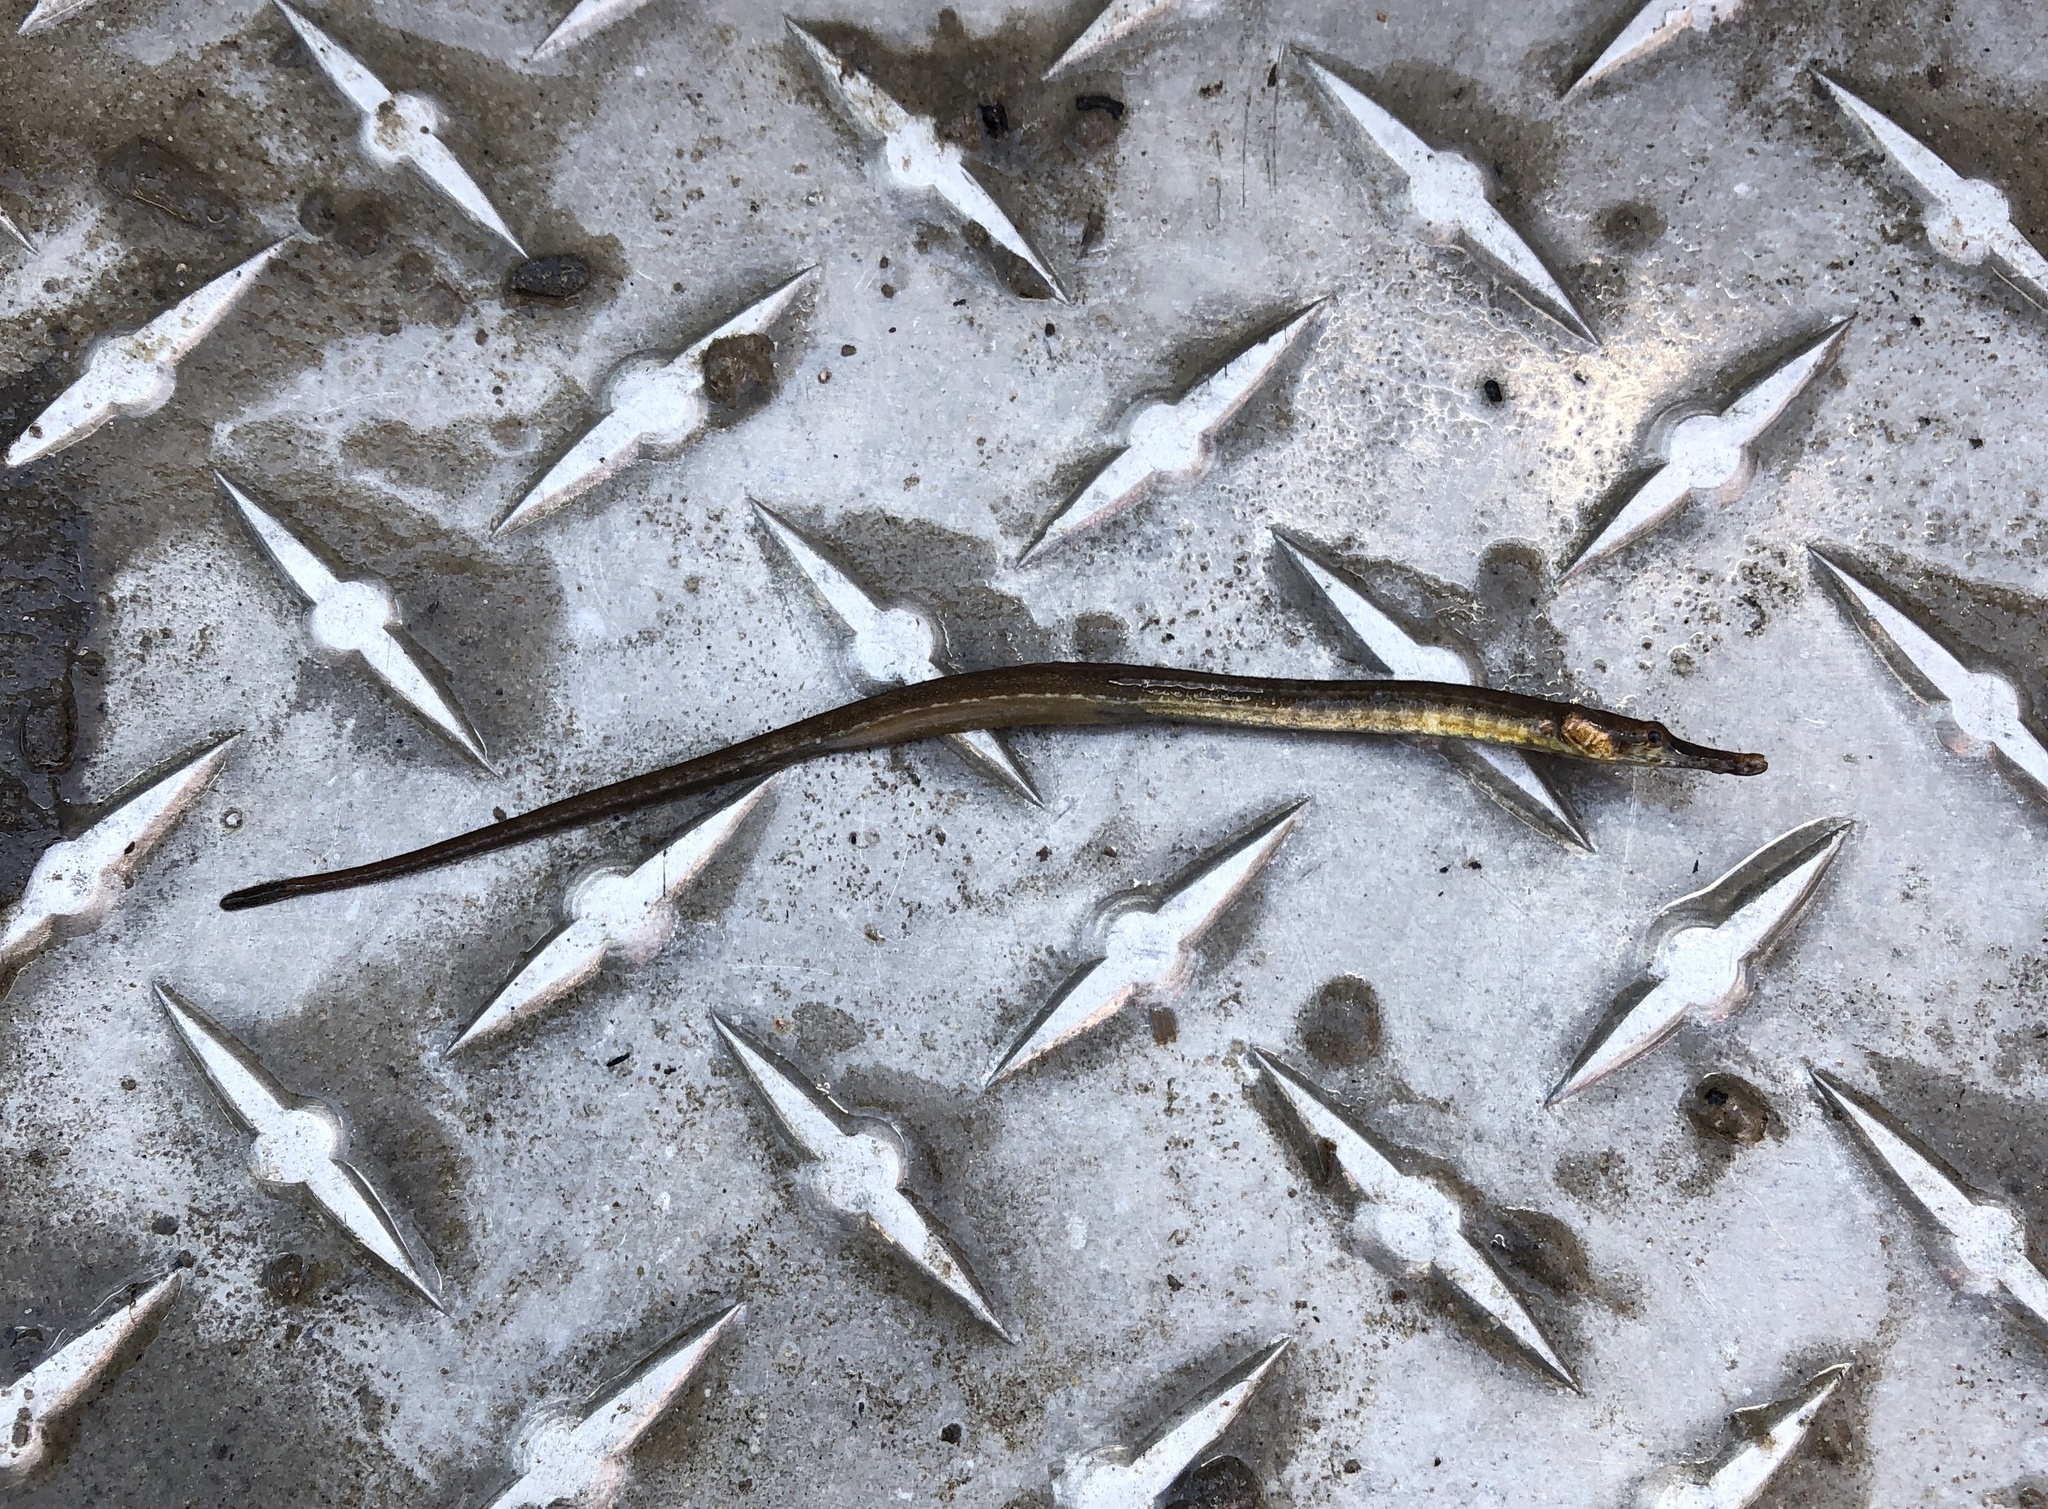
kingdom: Animalia
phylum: Chordata
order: Syngnathiformes
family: Syngnathidae
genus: Syngnathus
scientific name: Syngnathus scovelli
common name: American gulf pipefish
